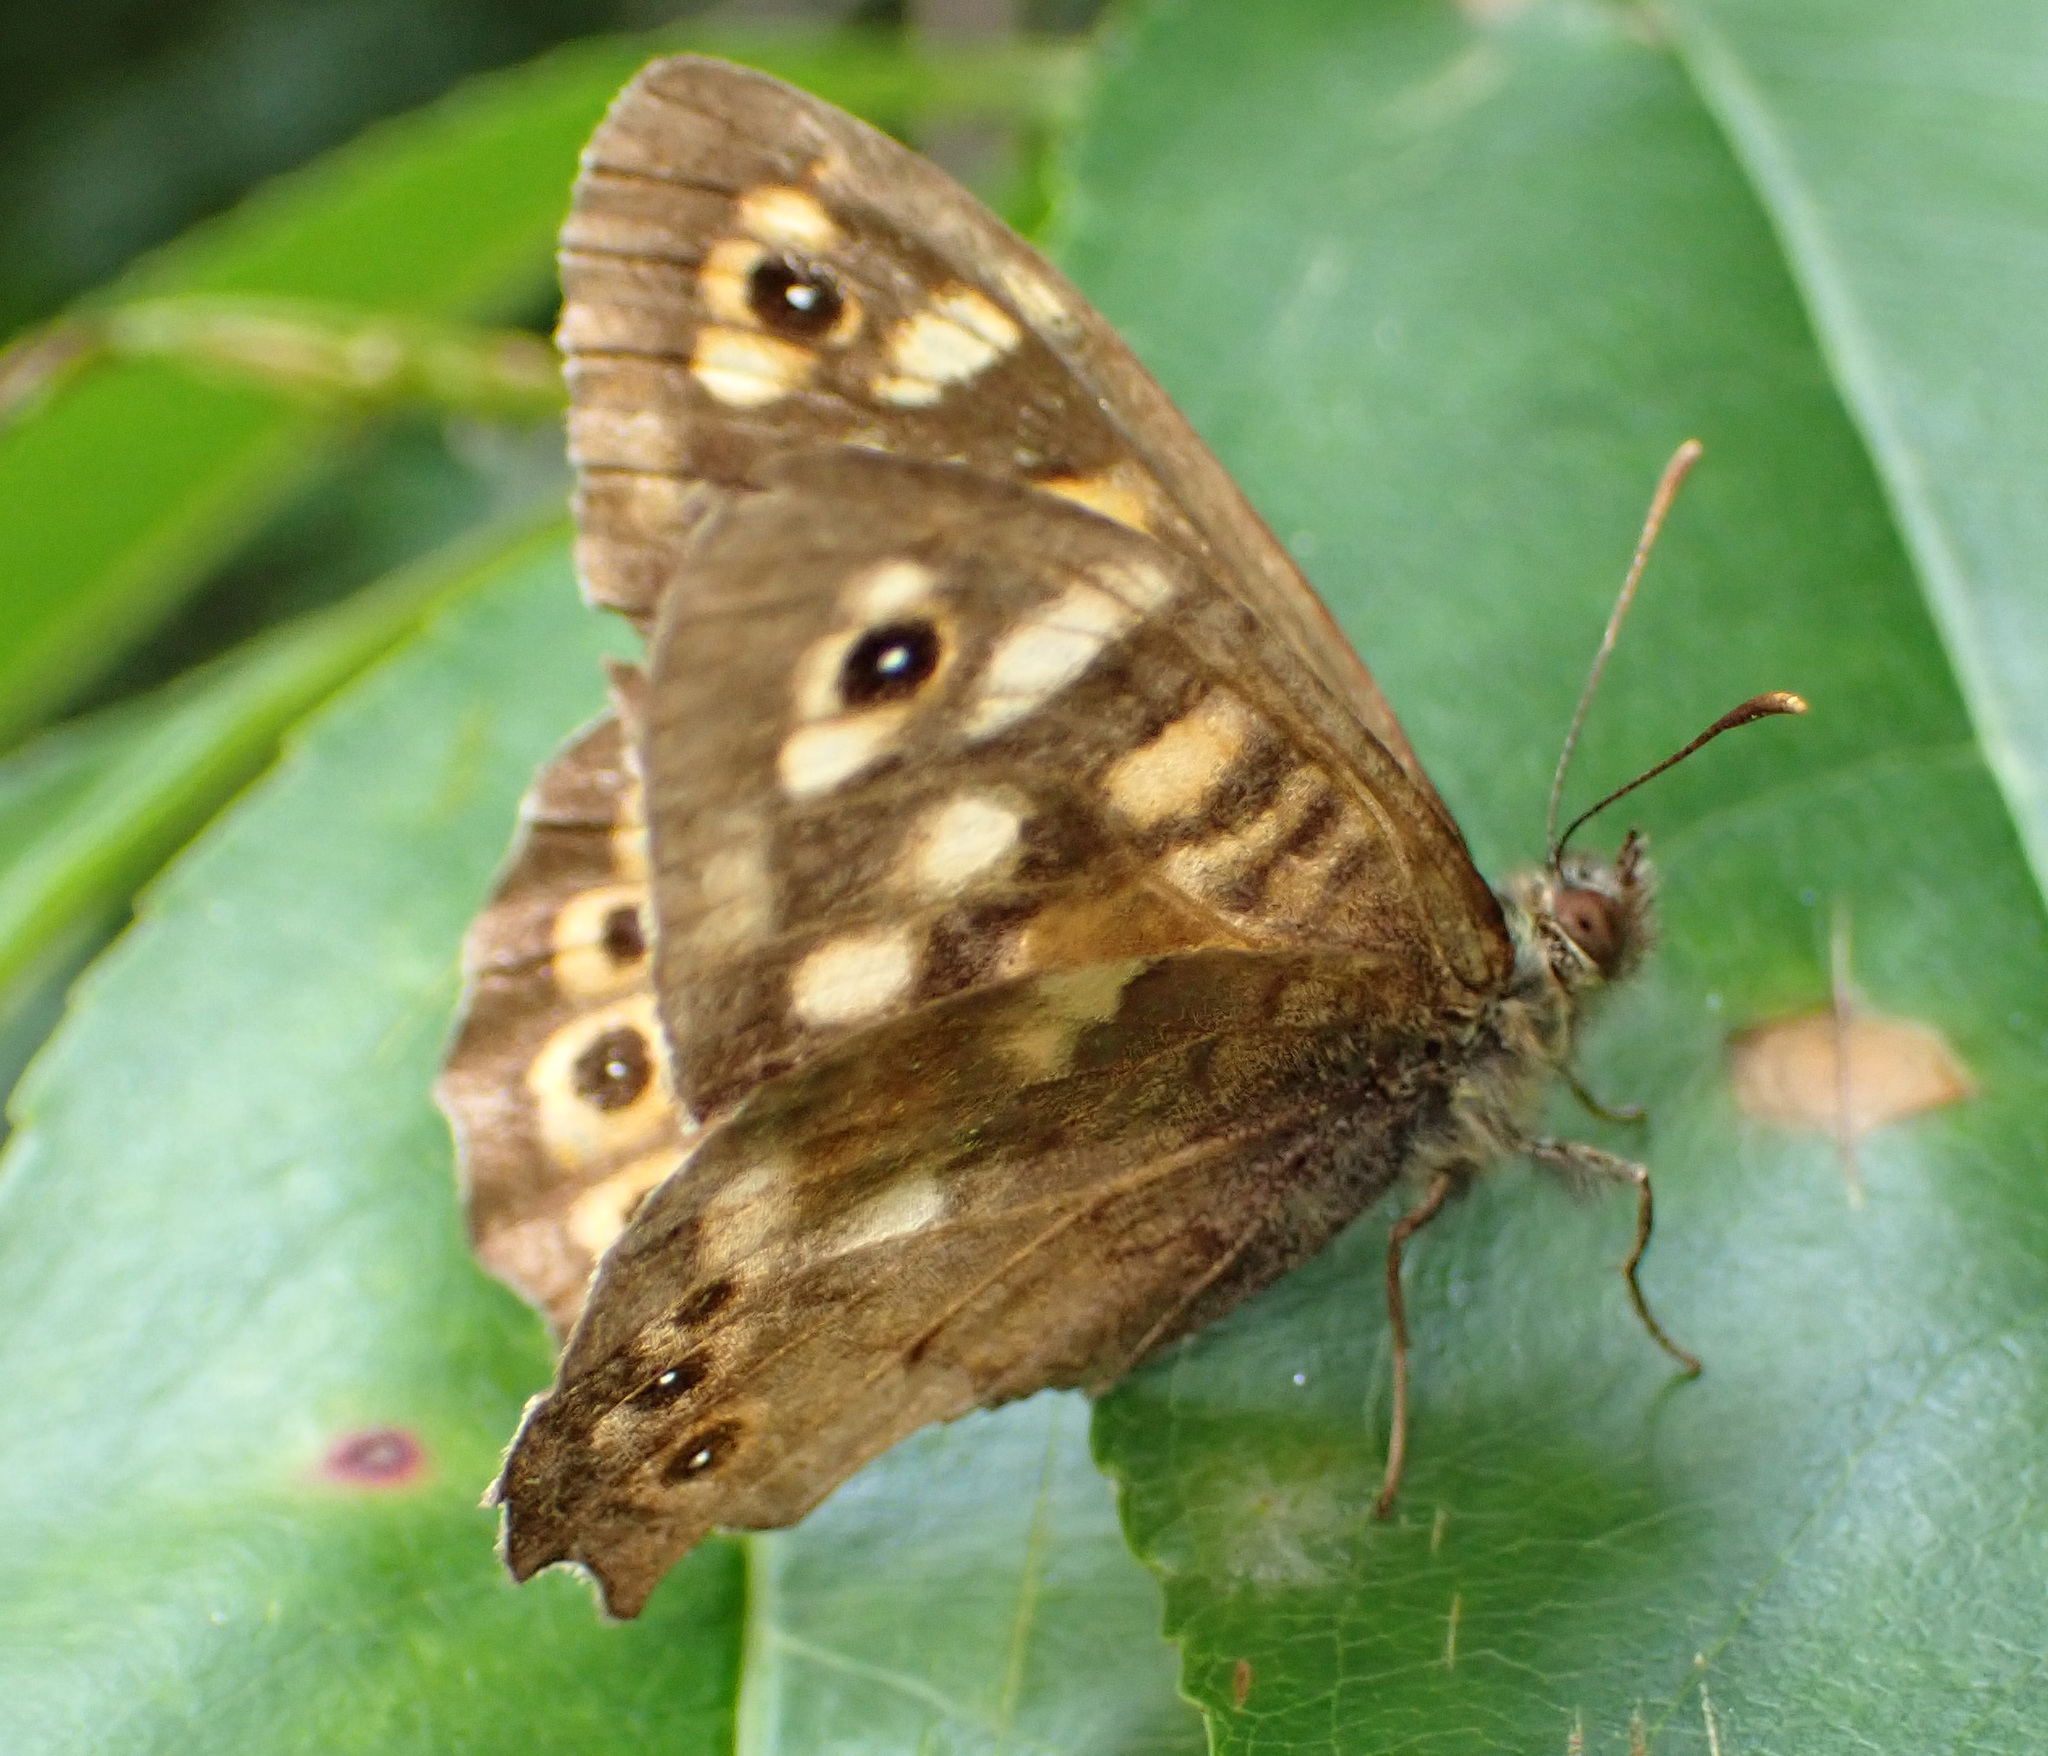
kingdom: Animalia
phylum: Arthropoda
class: Insecta
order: Lepidoptera
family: Nymphalidae
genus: Pararge
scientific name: Pararge aegeria
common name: Speckled wood
